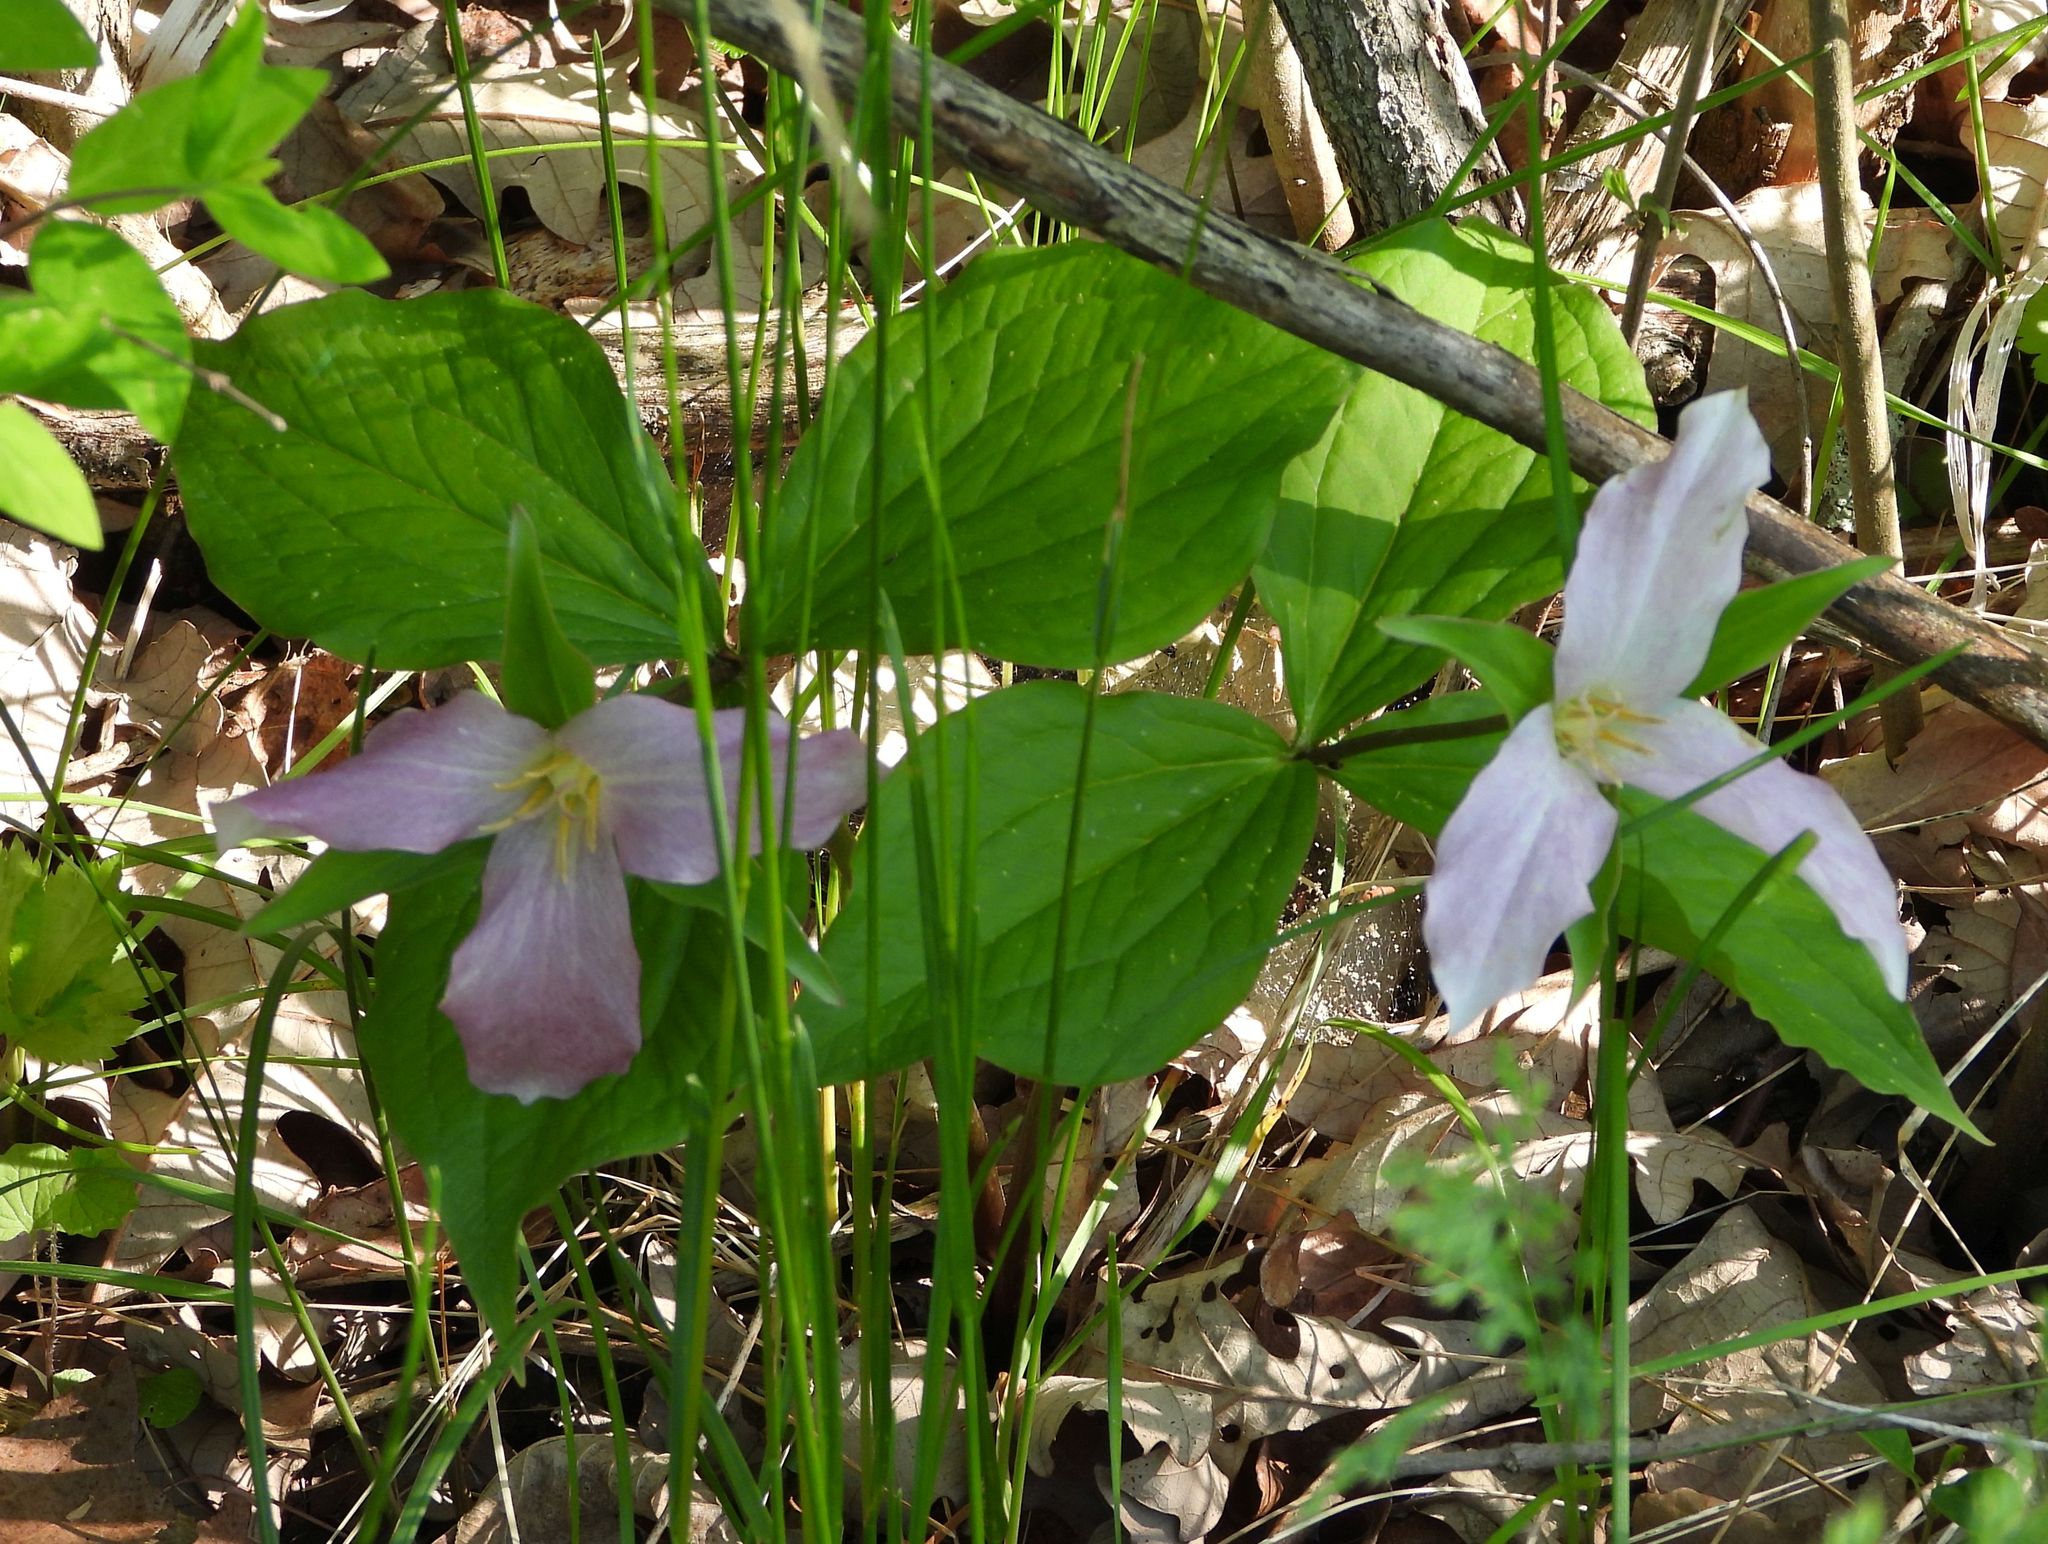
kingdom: Plantae
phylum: Tracheophyta
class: Liliopsida
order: Liliales
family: Melanthiaceae
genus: Trillium
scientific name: Trillium grandiflorum
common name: Great white trillium
